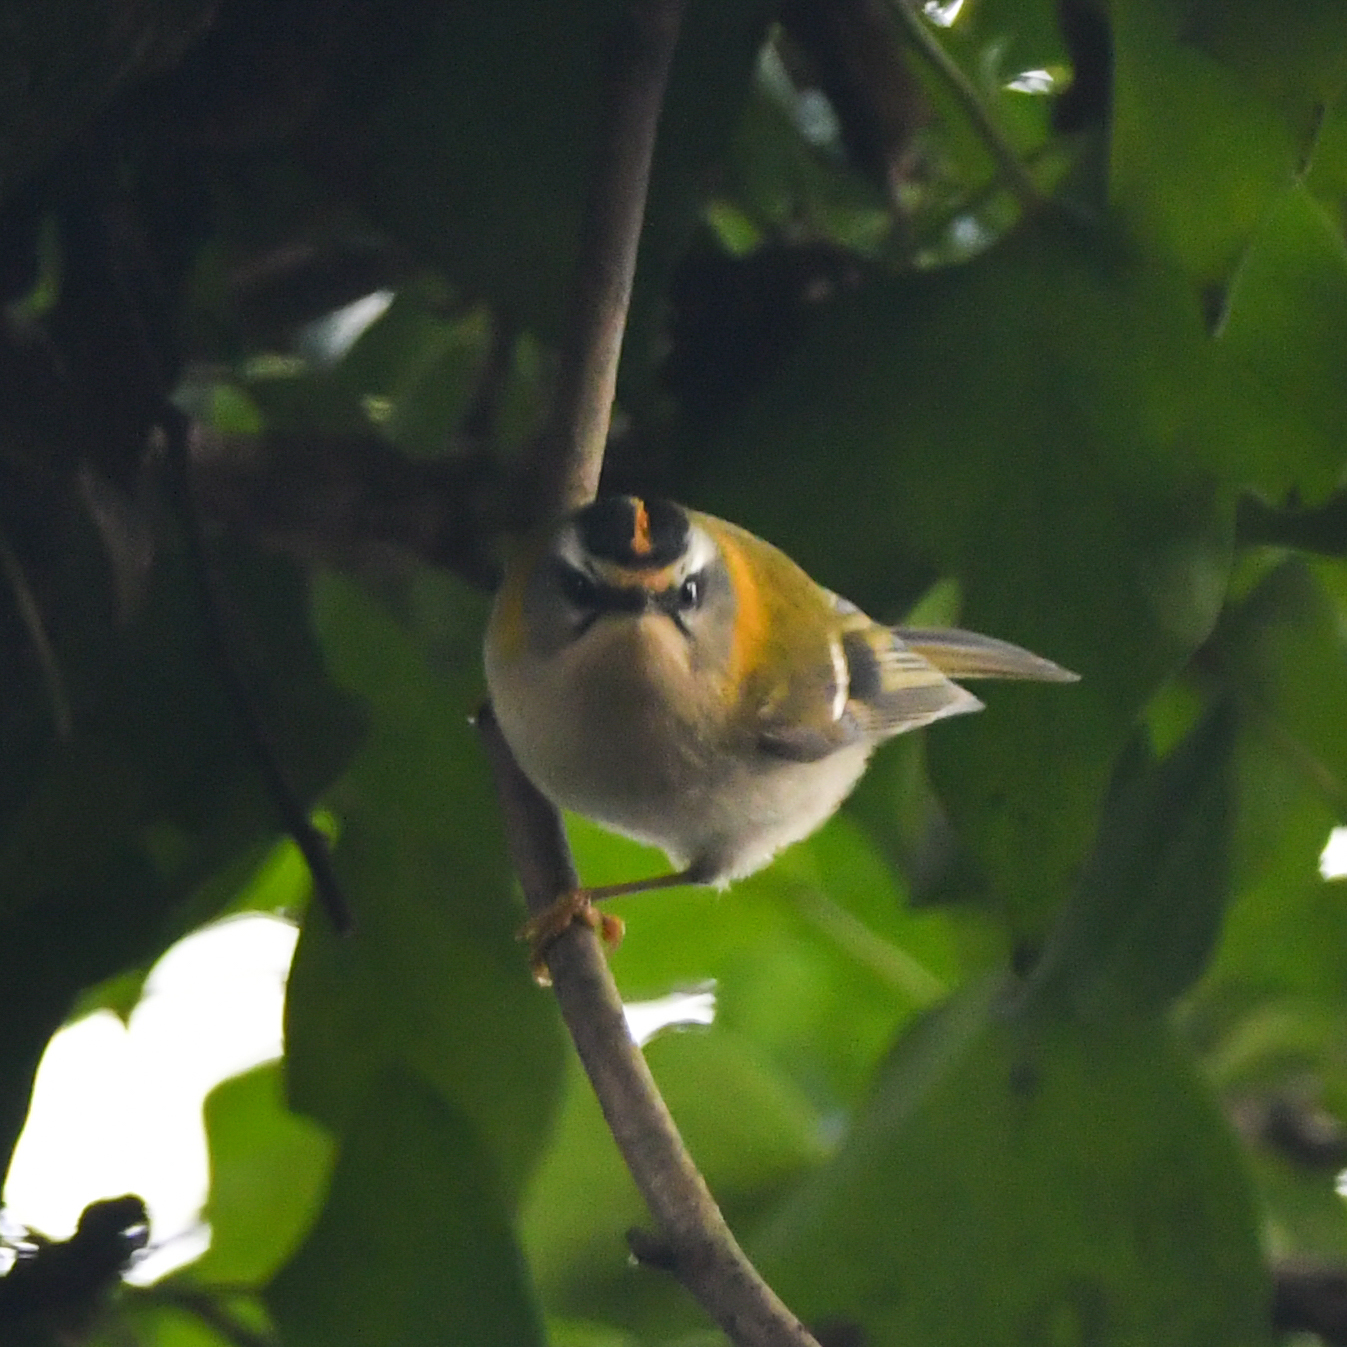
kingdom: Animalia
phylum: Chordata
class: Aves
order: Passeriformes
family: Regulidae
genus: Regulus
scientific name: Regulus ignicapilla
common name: Firecrest
